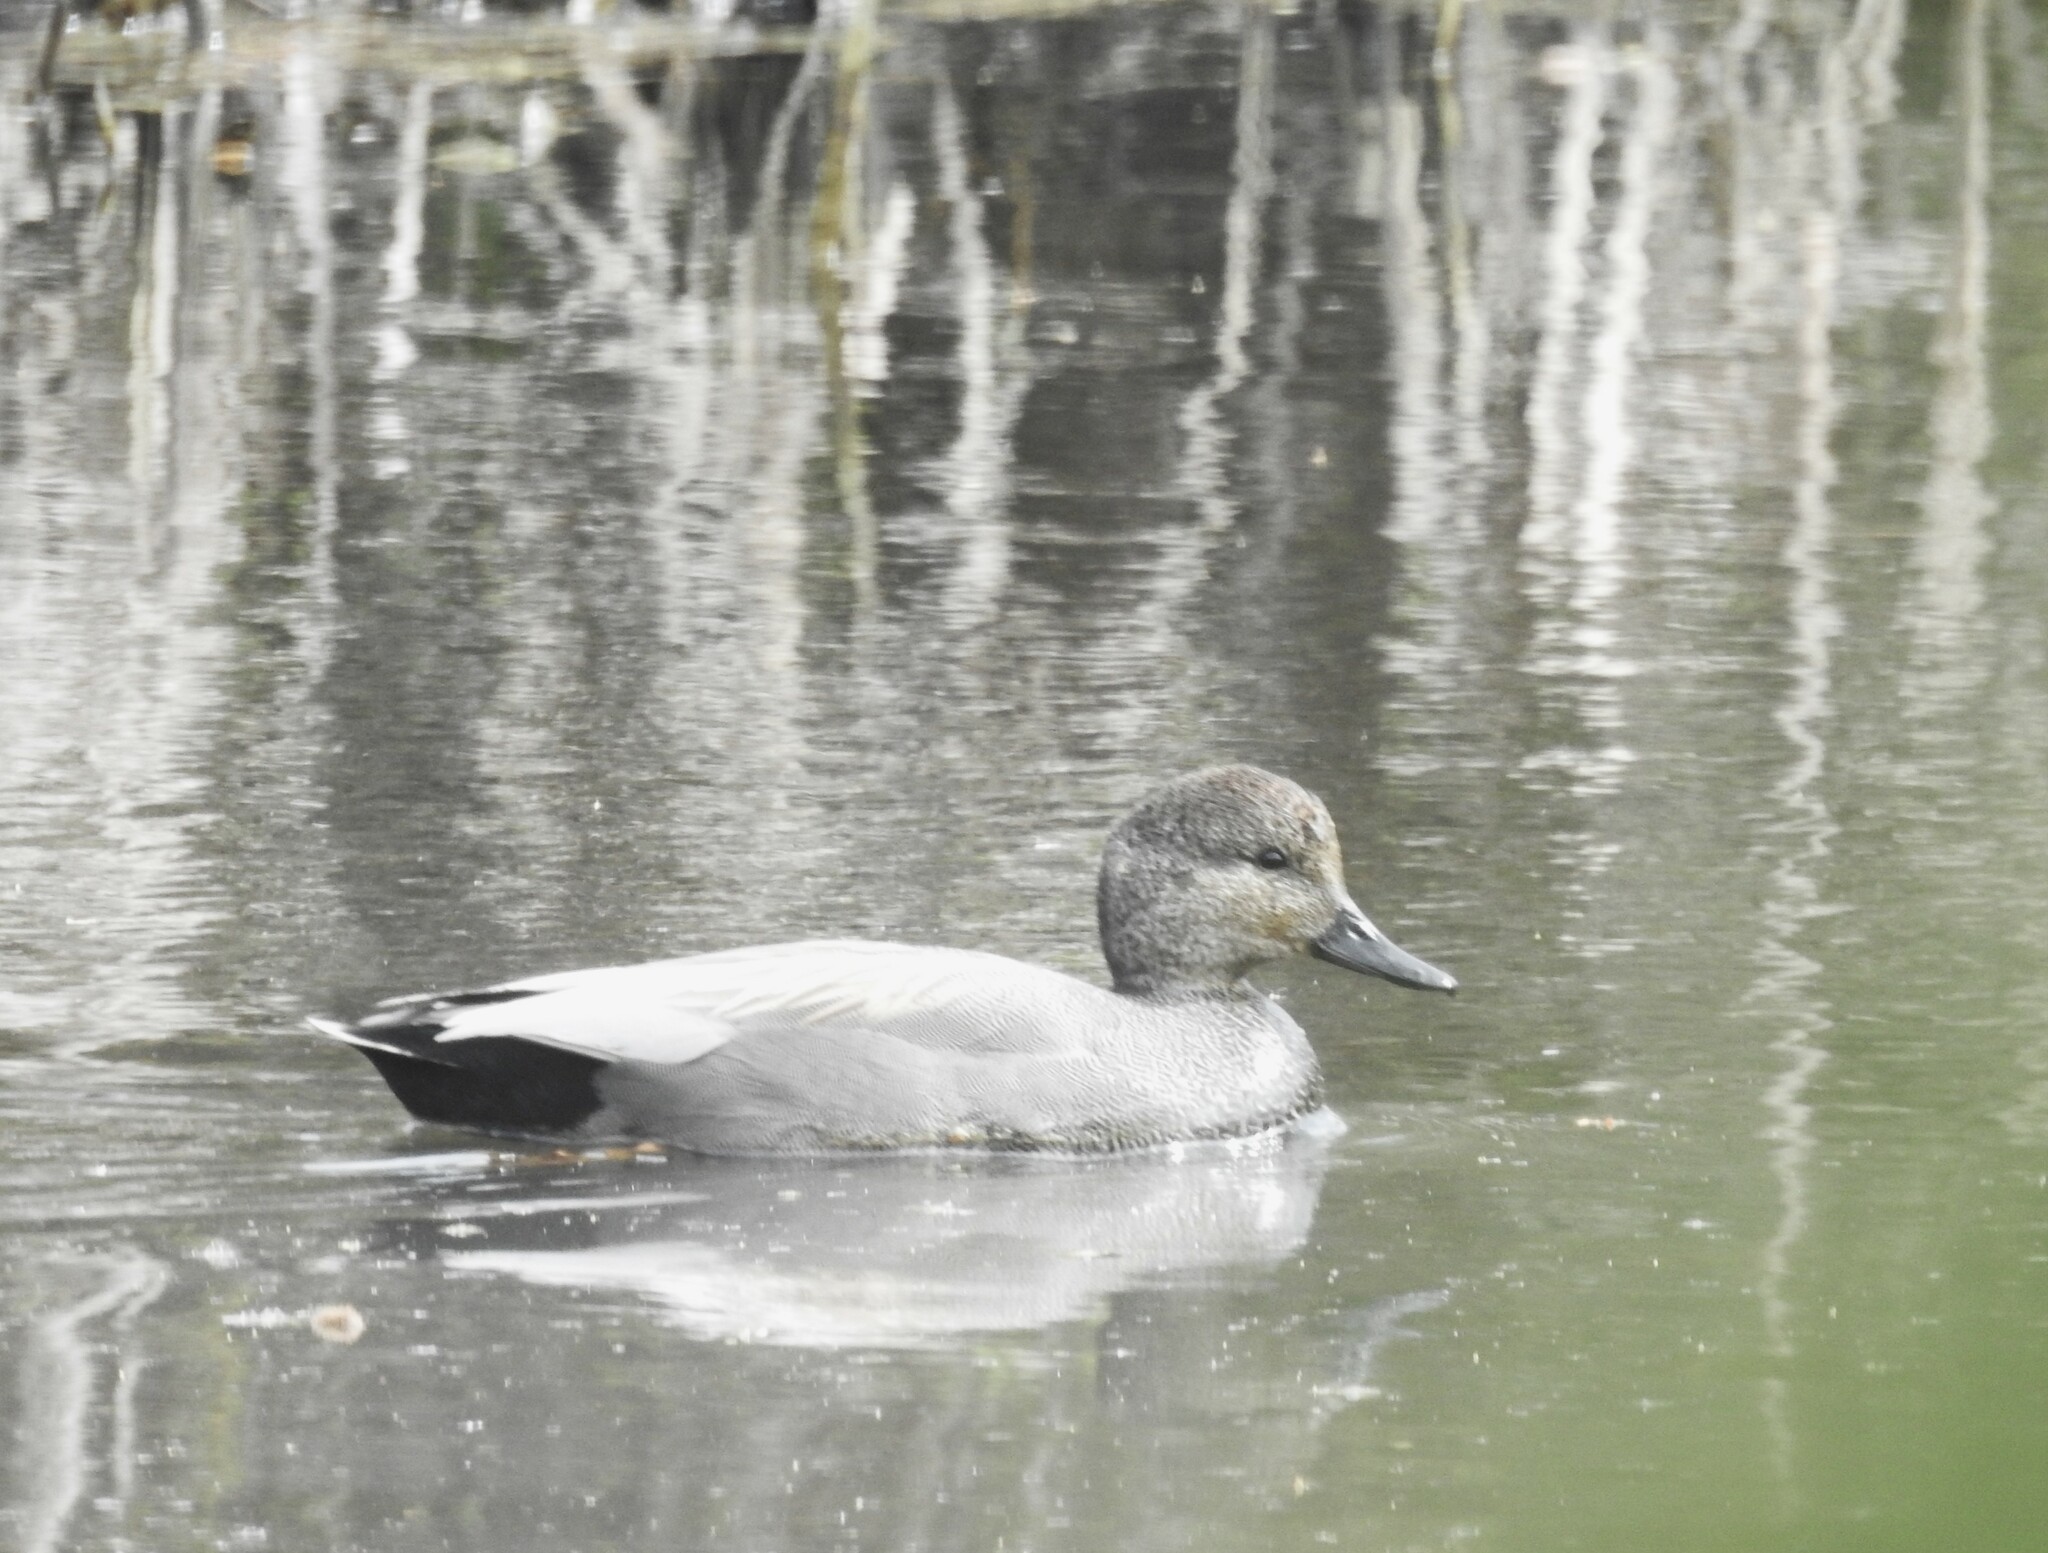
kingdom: Animalia
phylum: Chordata
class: Aves
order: Anseriformes
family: Anatidae
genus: Mareca
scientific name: Mareca strepera
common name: Gadwall
